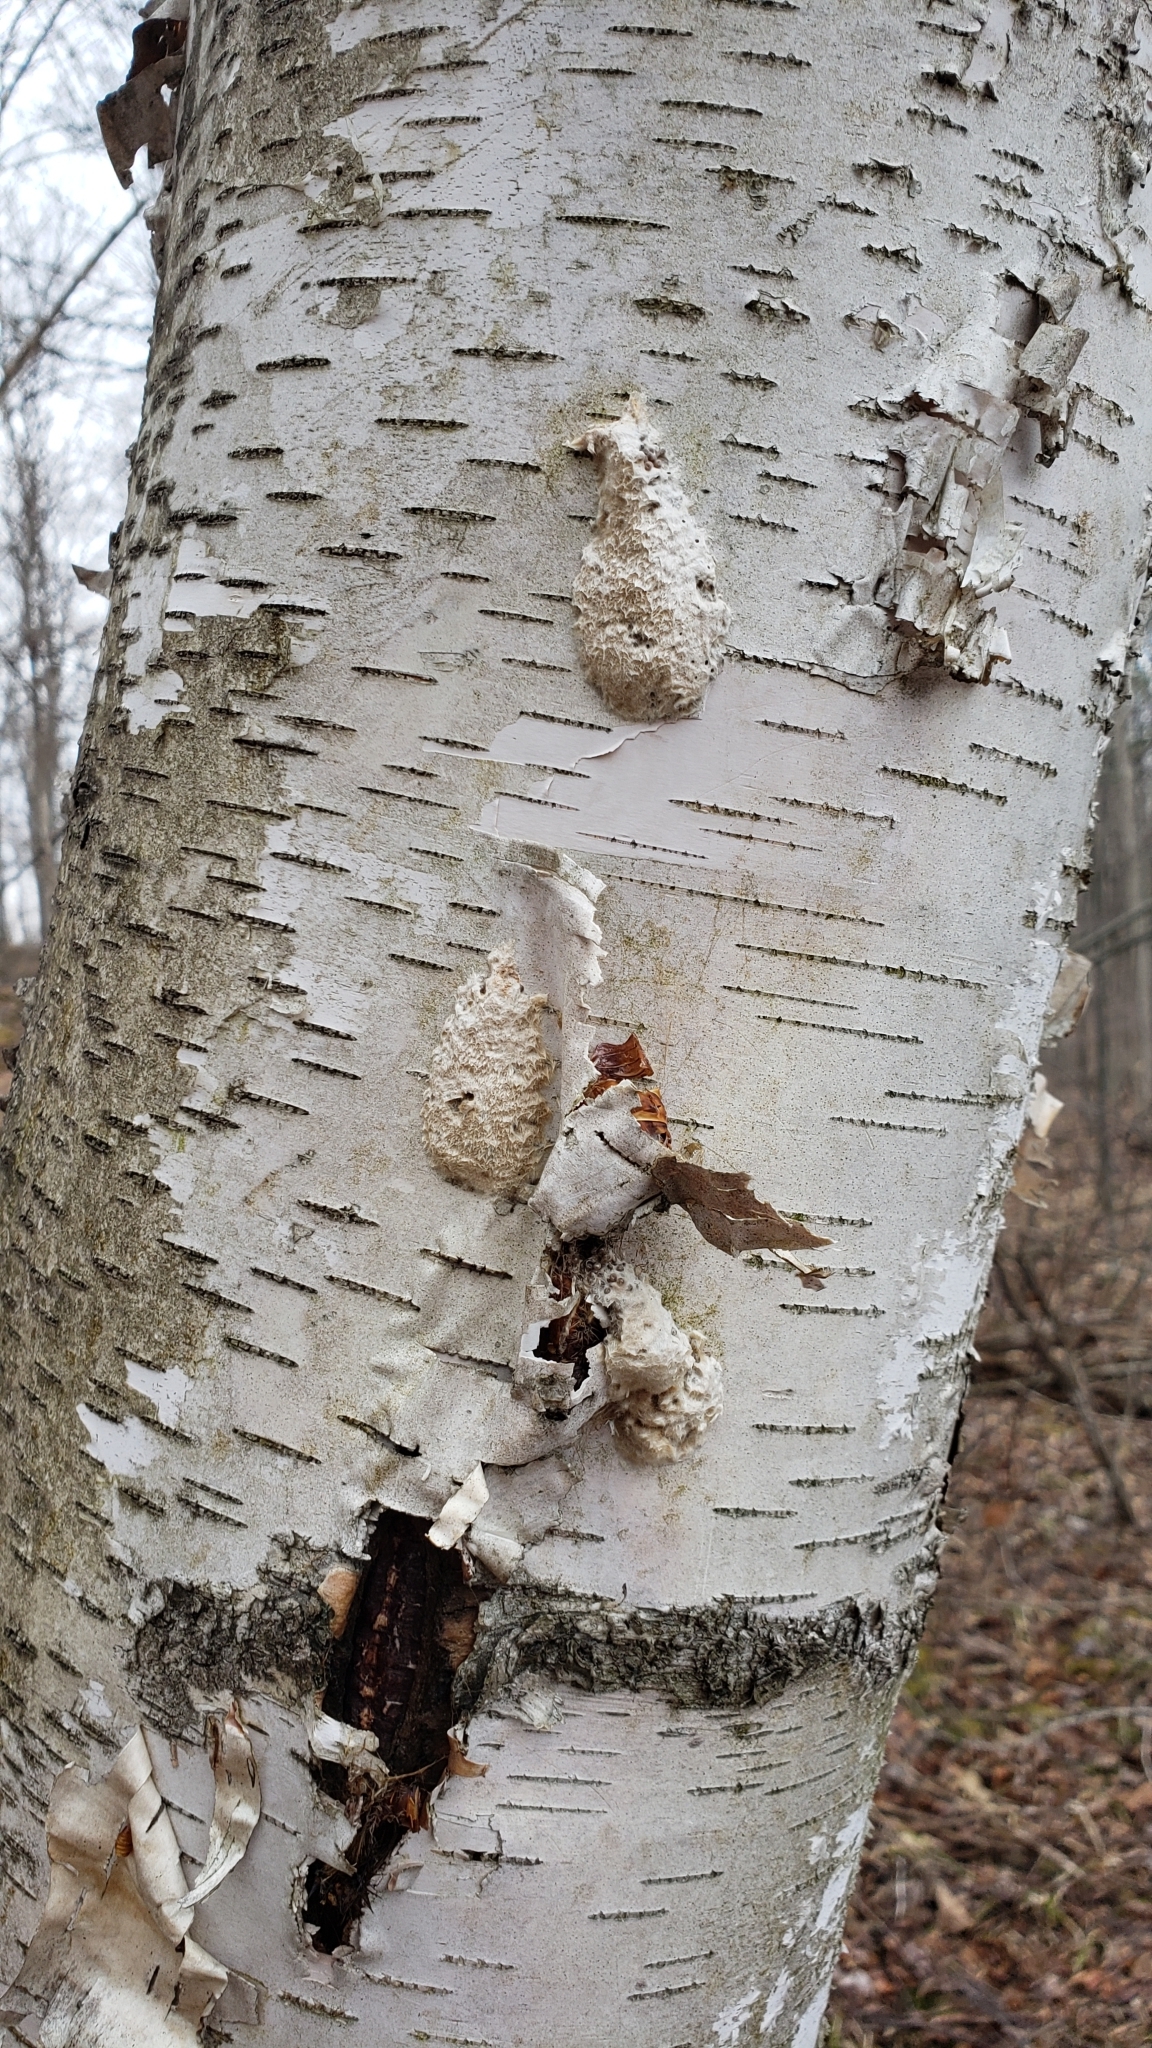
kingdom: Animalia
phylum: Arthropoda
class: Insecta
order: Lepidoptera
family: Erebidae
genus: Lymantria
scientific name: Lymantria dispar
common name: Gypsy moth
